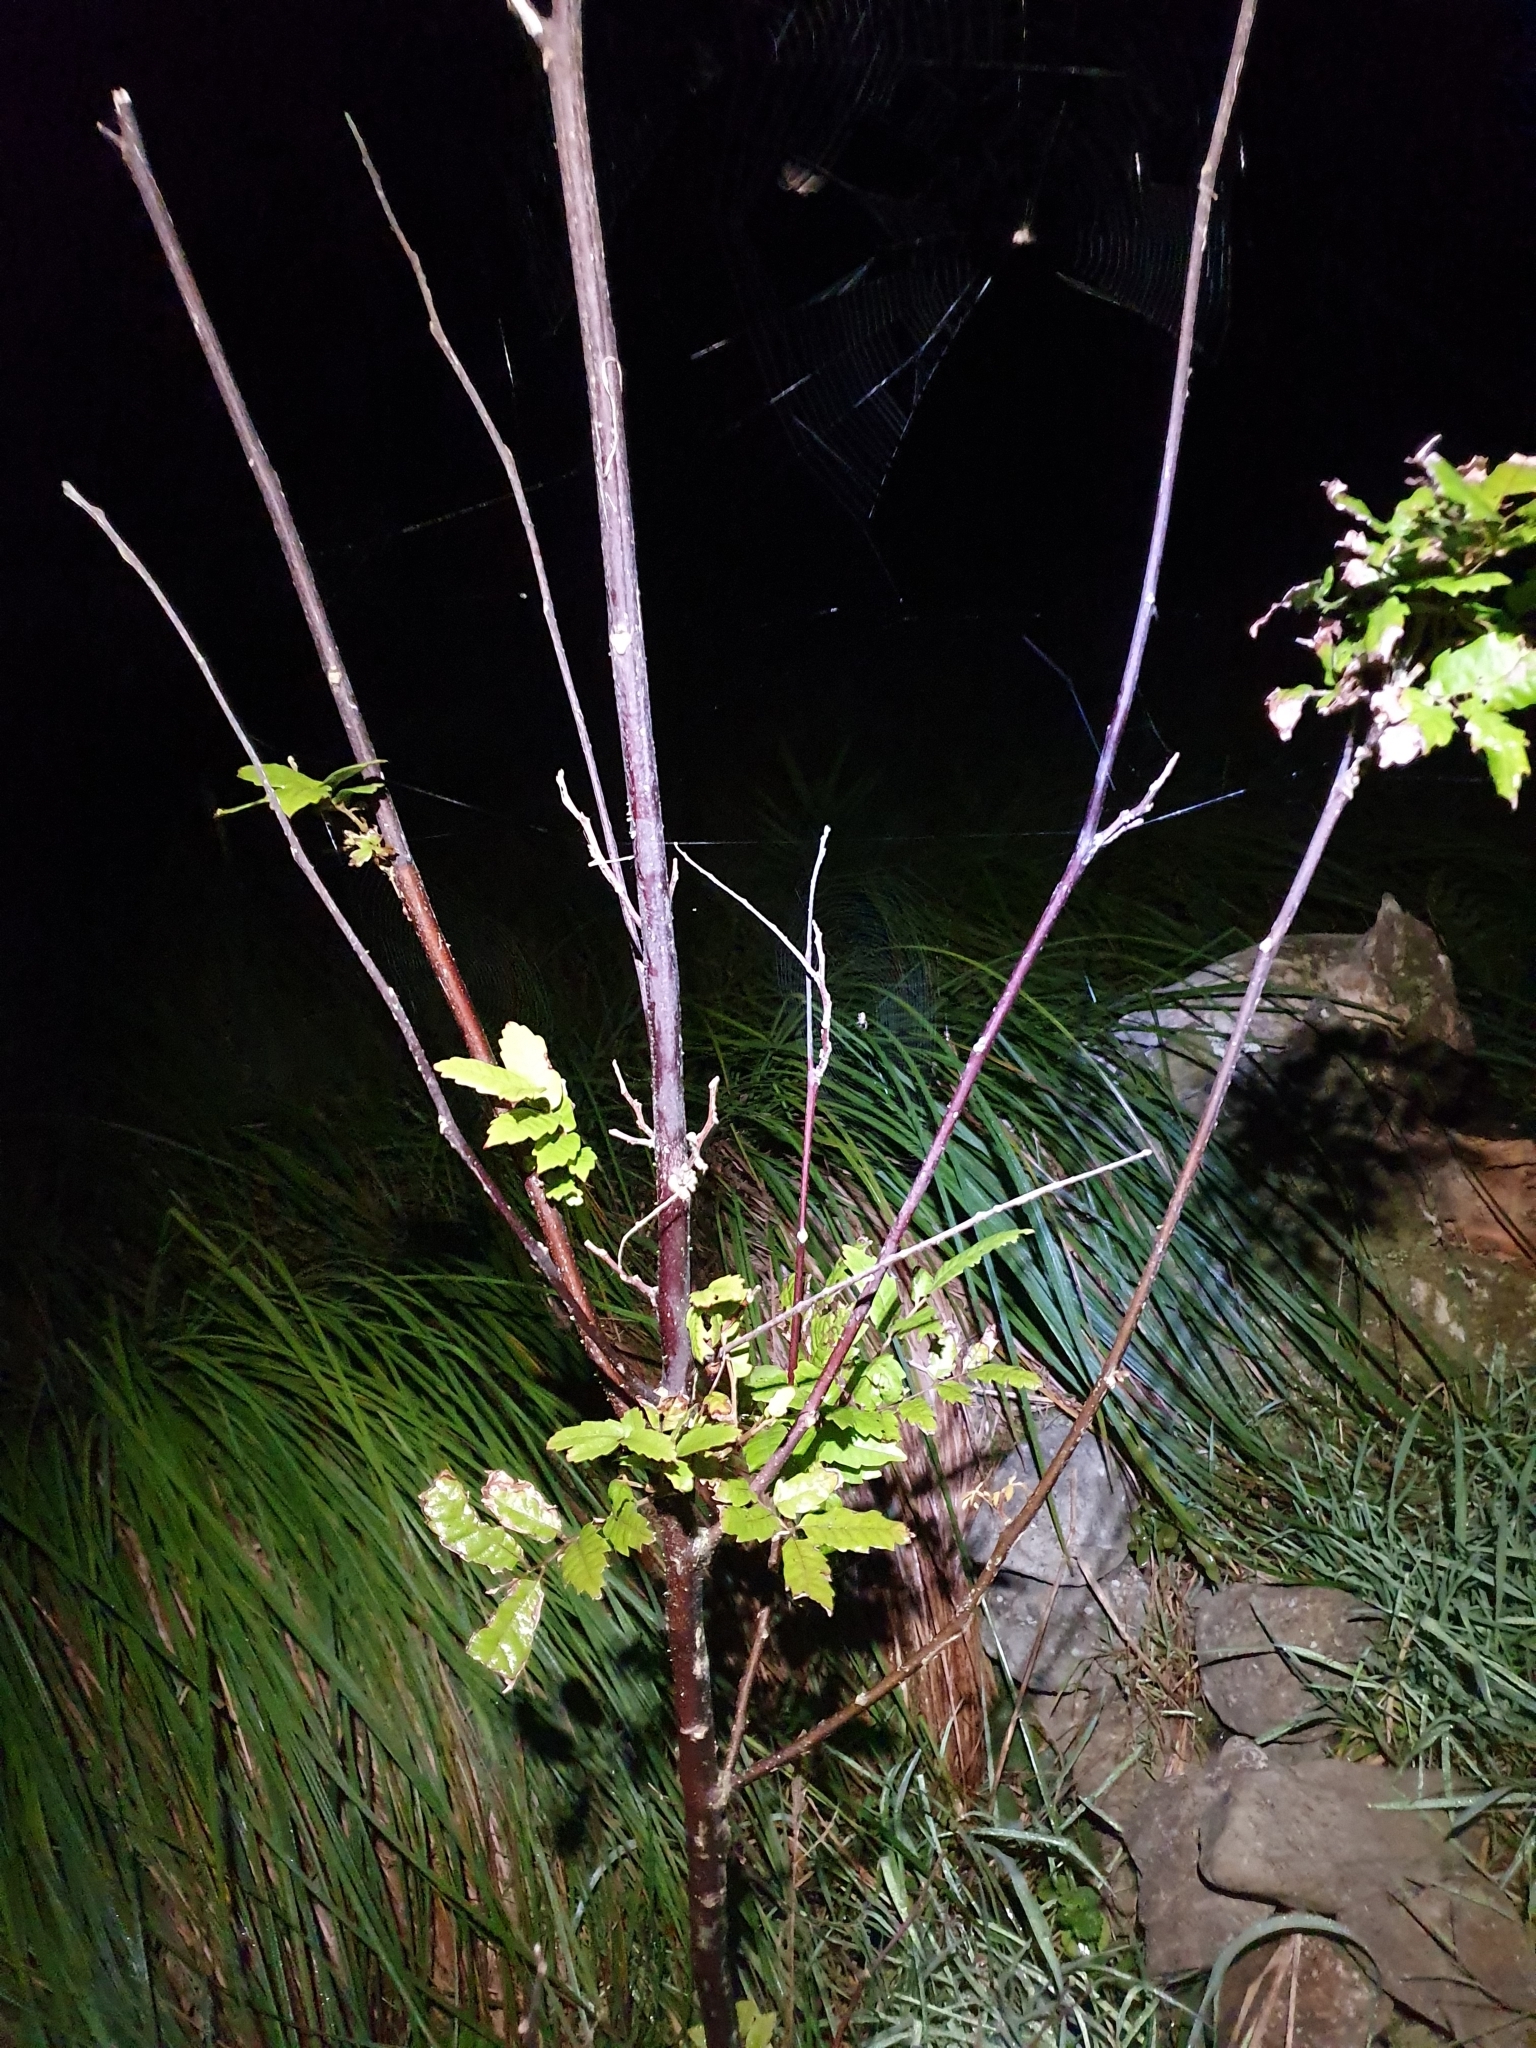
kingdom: Plantae
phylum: Tracheophyta
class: Magnoliopsida
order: Sapindales
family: Sapindaceae
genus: Alectryon
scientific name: Alectryon excelsus
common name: Three kings titoki
